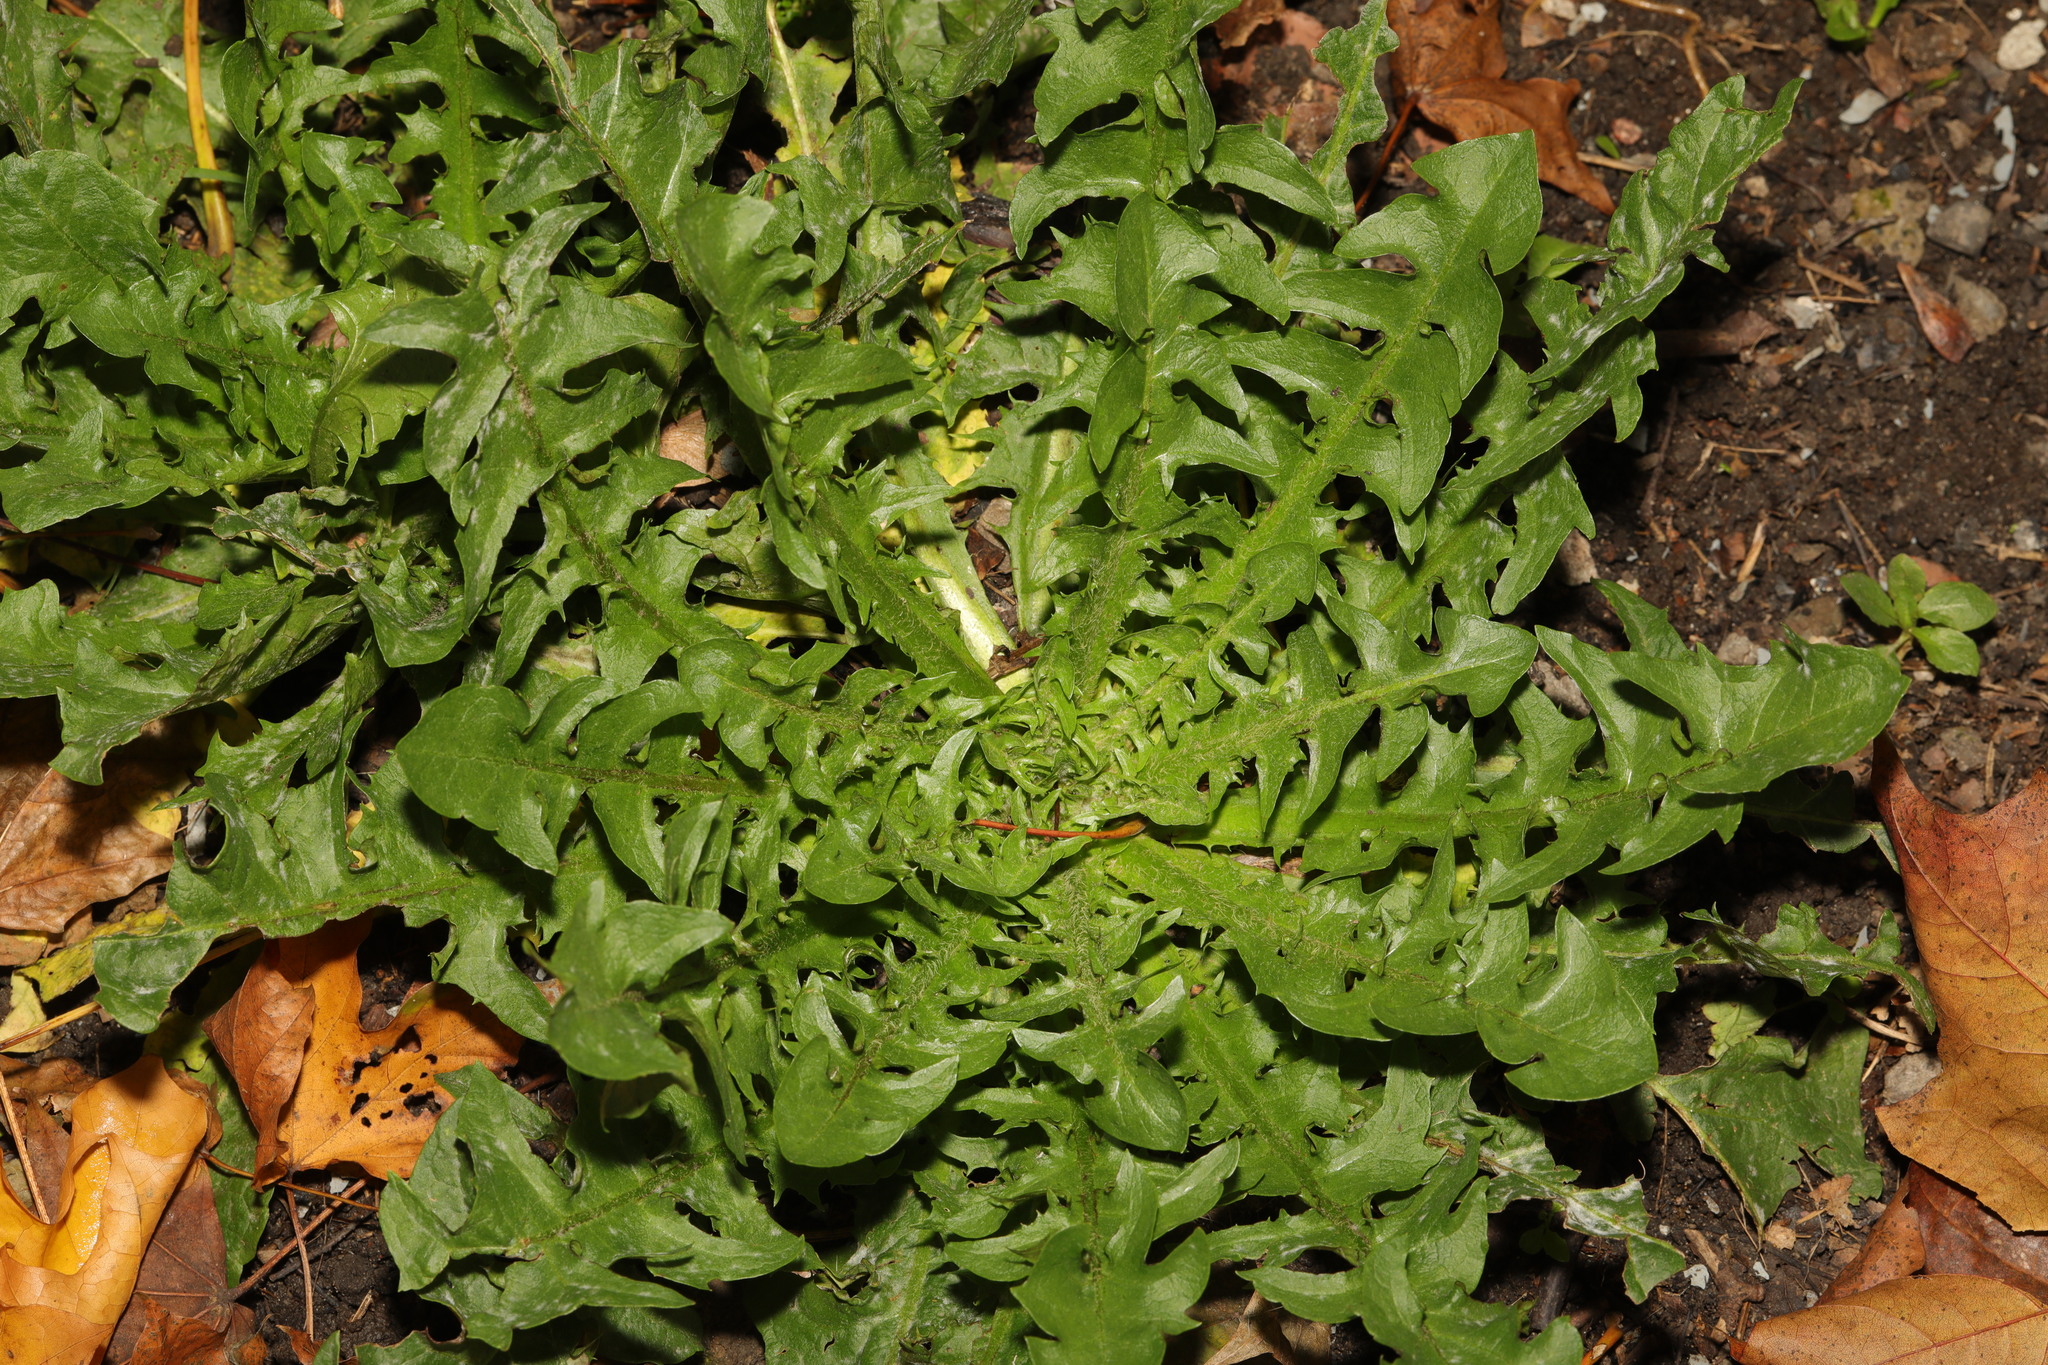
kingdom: Plantae
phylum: Tracheophyta
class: Magnoliopsida
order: Asterales
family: Asteraceae
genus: Taraxacum
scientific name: Taraxacum officinale
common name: Common dandelion
